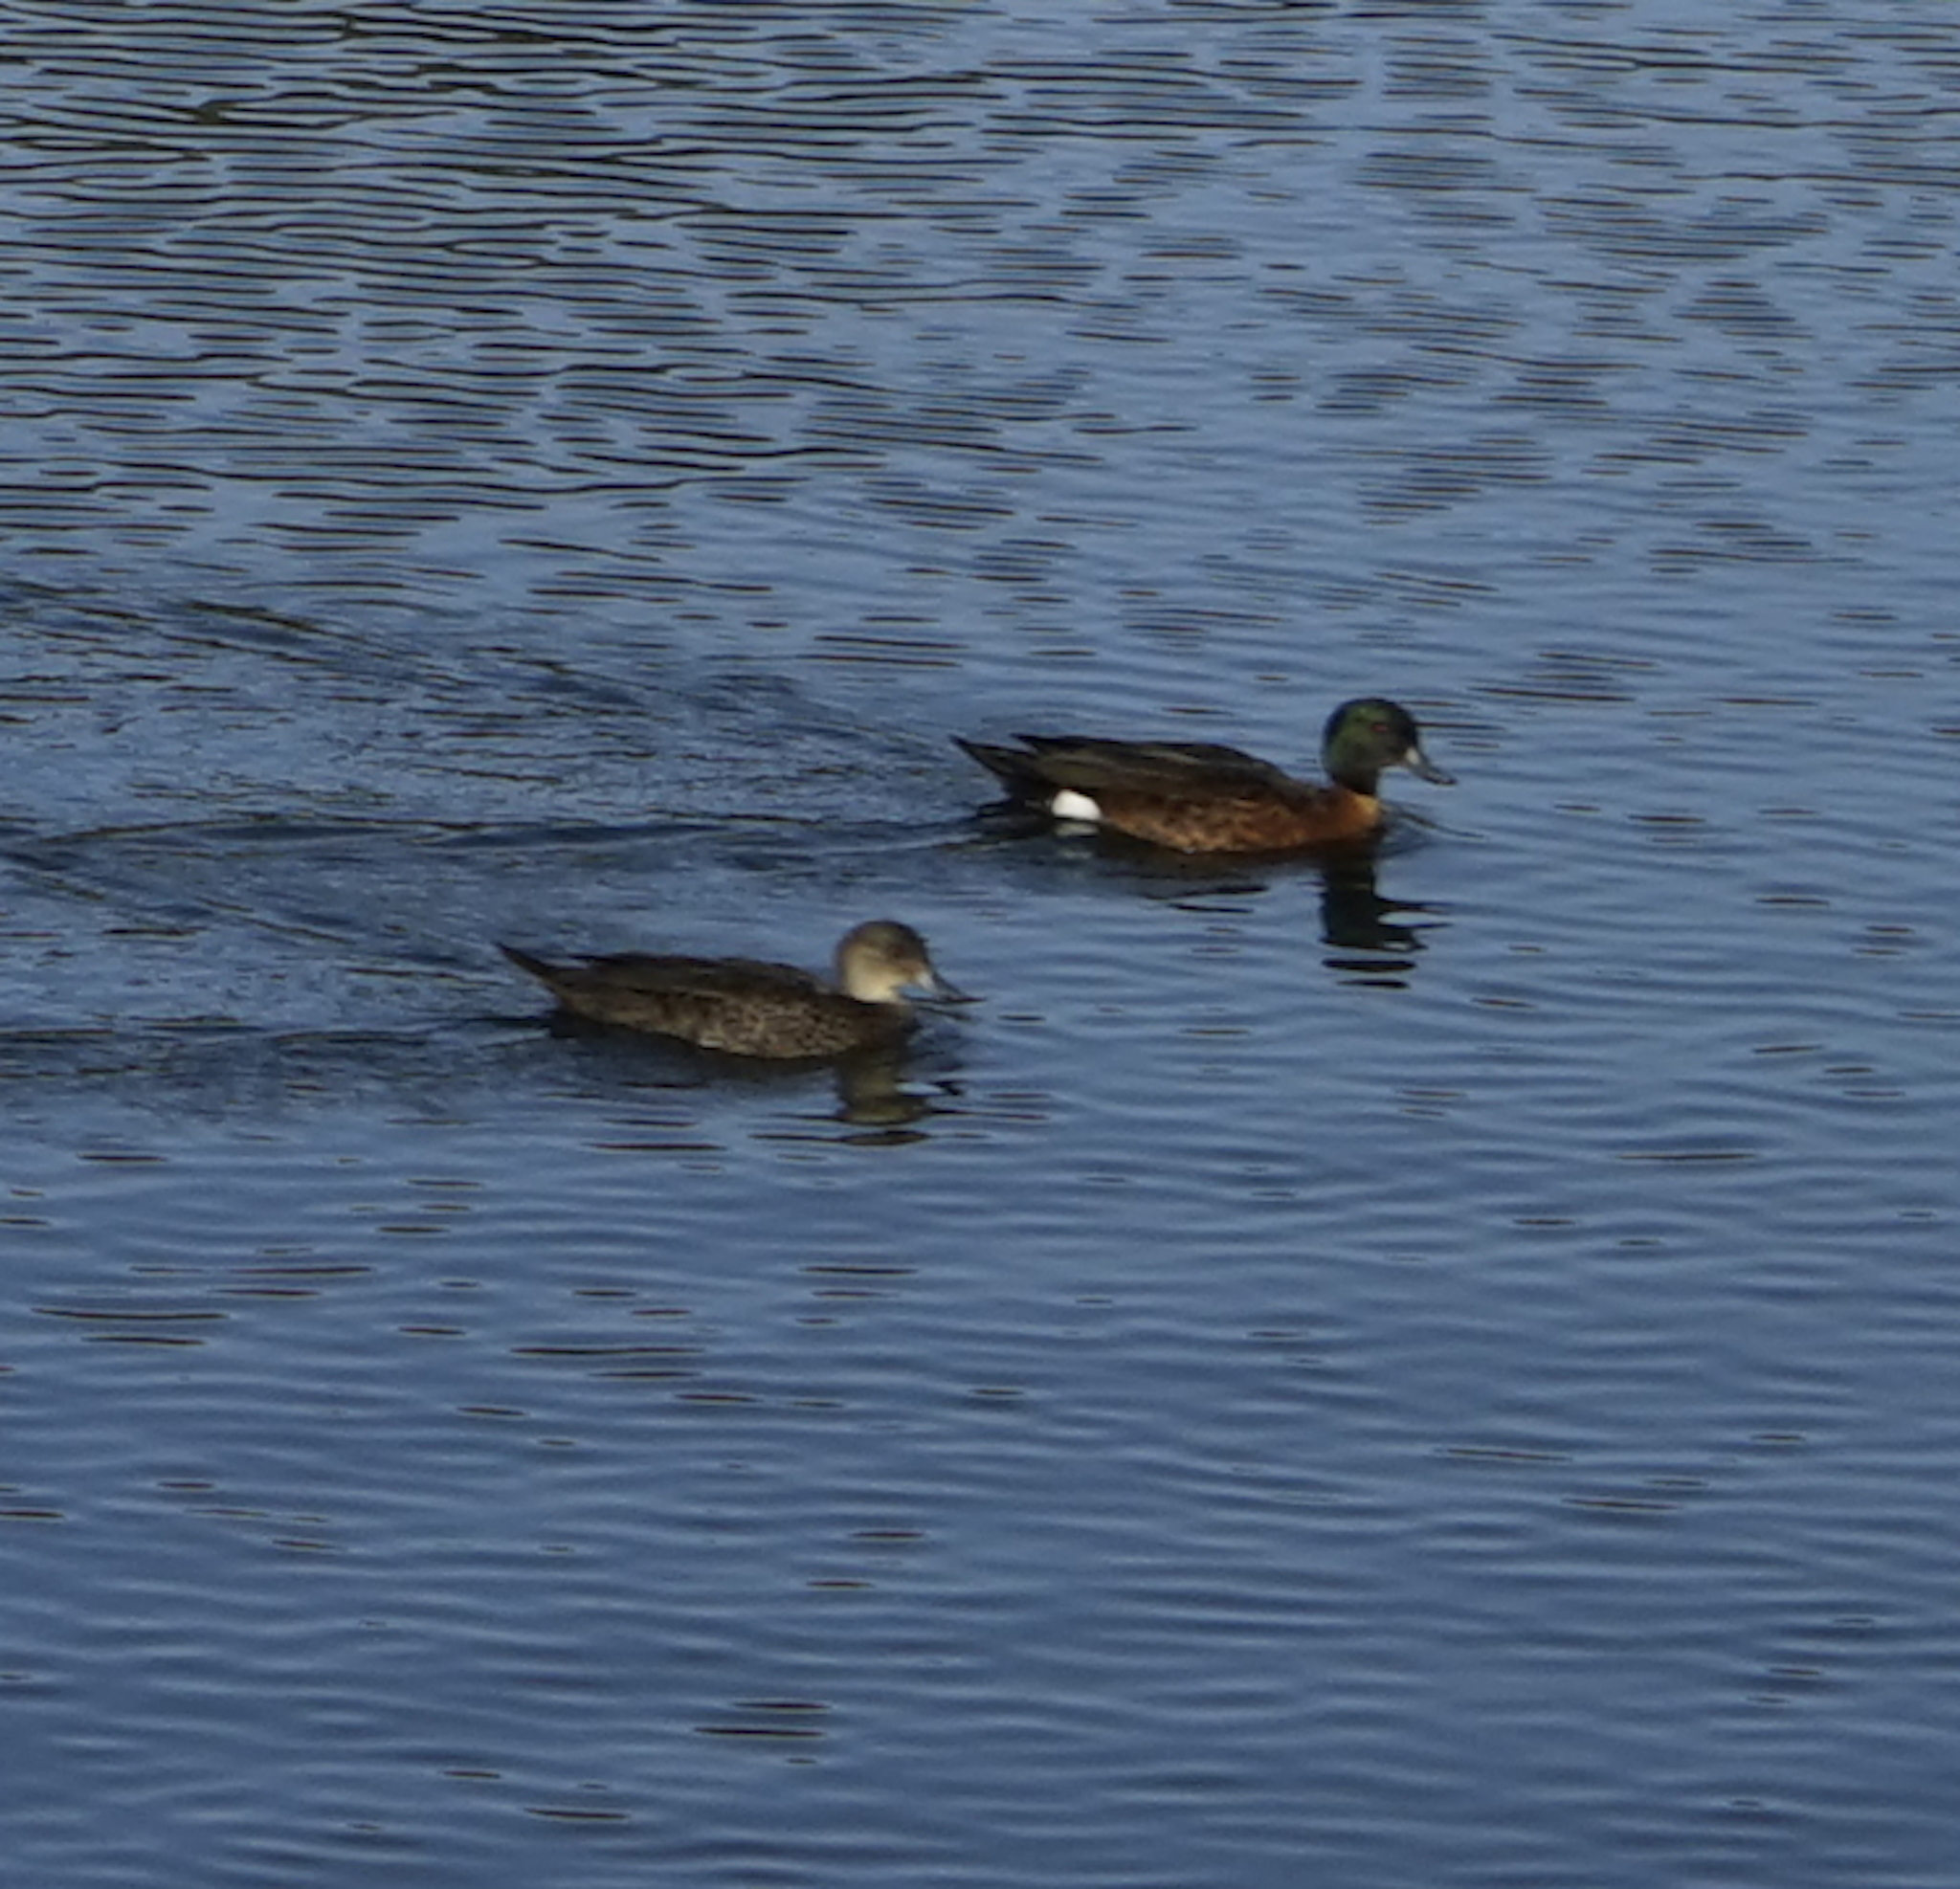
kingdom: Animalia
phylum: Chordata
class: Aves
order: Anseriformes
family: Anatidae
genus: Anas
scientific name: Anas castanea
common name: Chestnut teal
